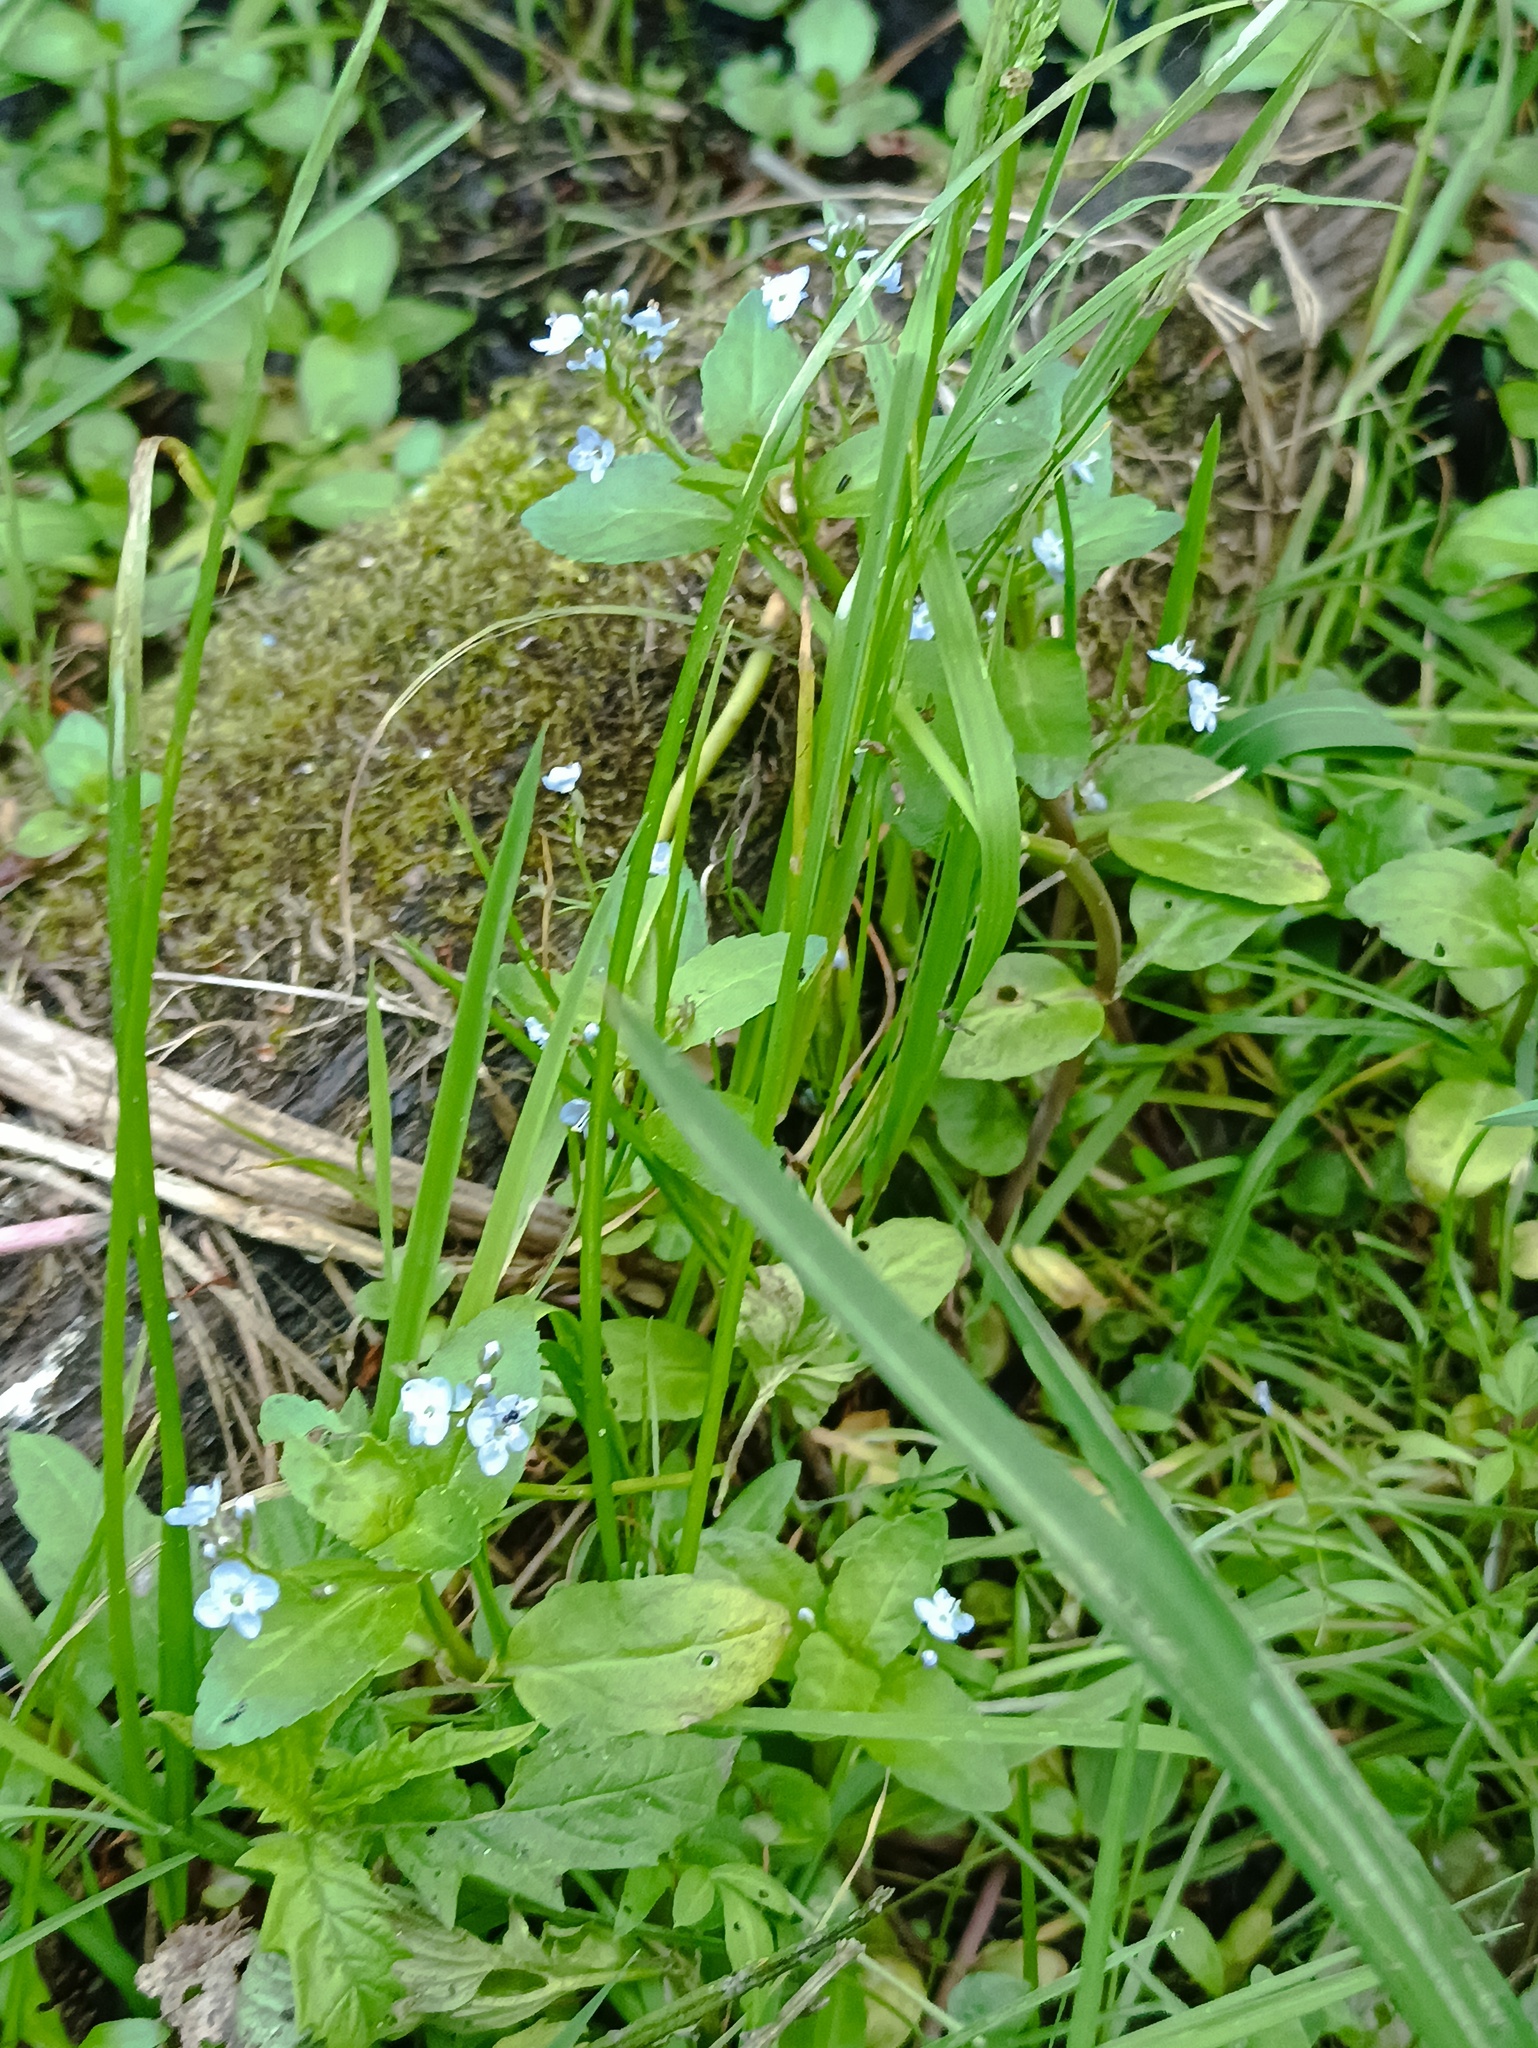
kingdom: Plantae
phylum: Tracheophyta
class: Magnoliopsida
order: Lamiales
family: Plantaginaceae
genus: Veronica
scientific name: Veronica beccabunga
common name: Brooklime
